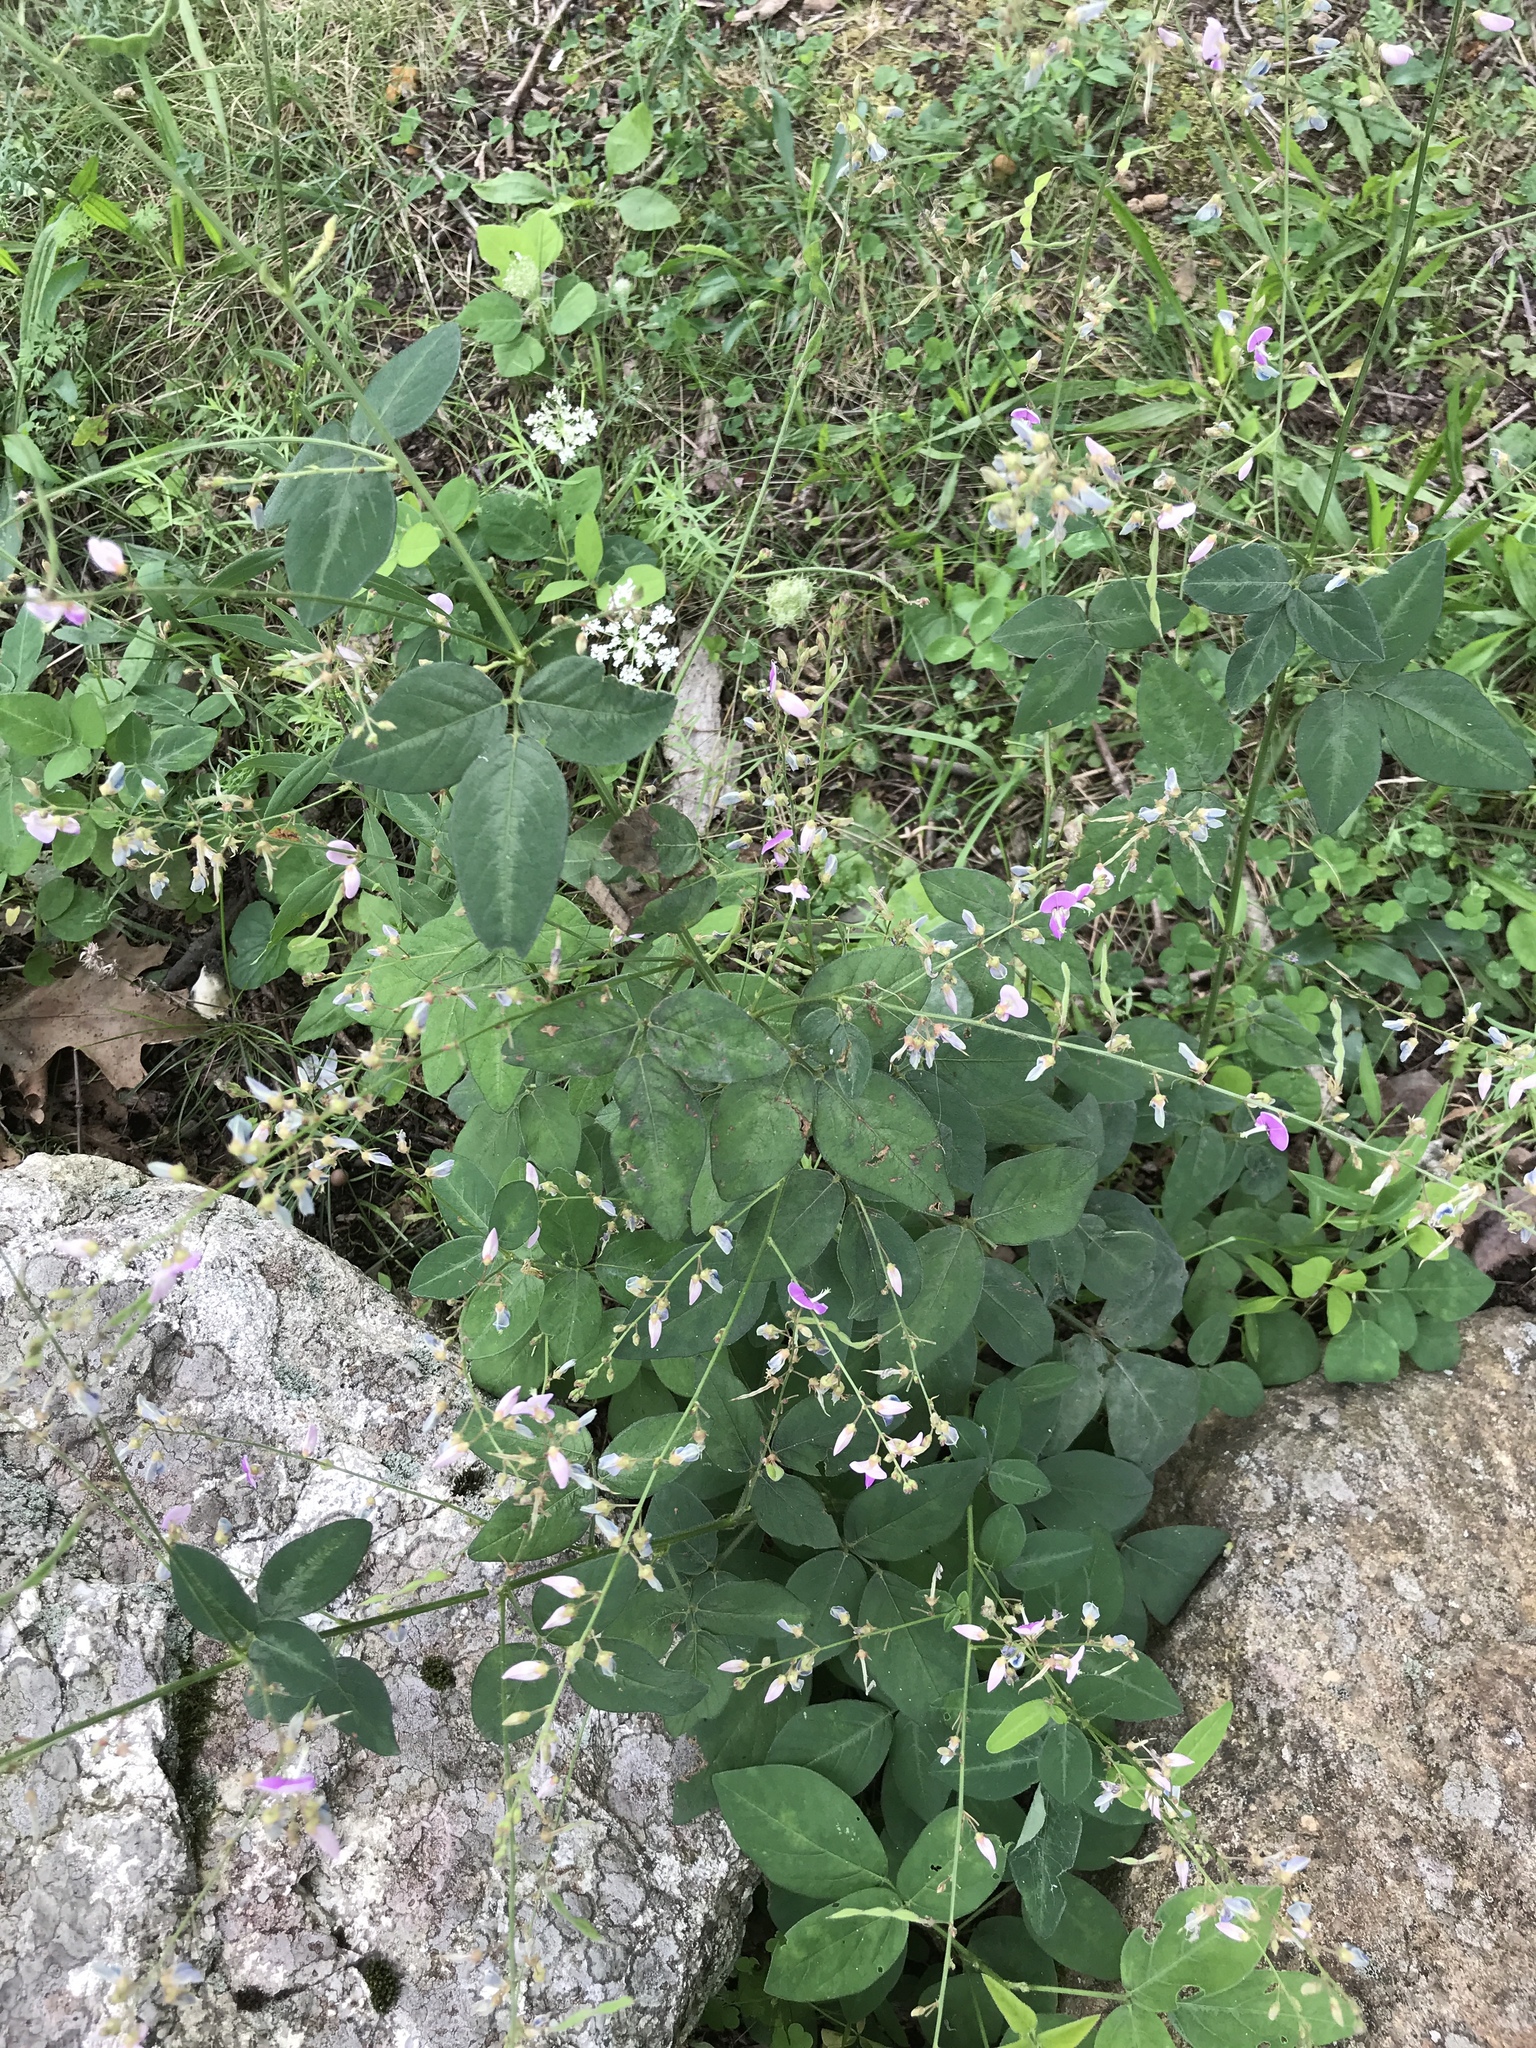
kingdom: Plantae
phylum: Tracheophyta
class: Magnoliopsida
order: Fabales
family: Fabaceae
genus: Desmodium
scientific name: Desmodium glabellum
